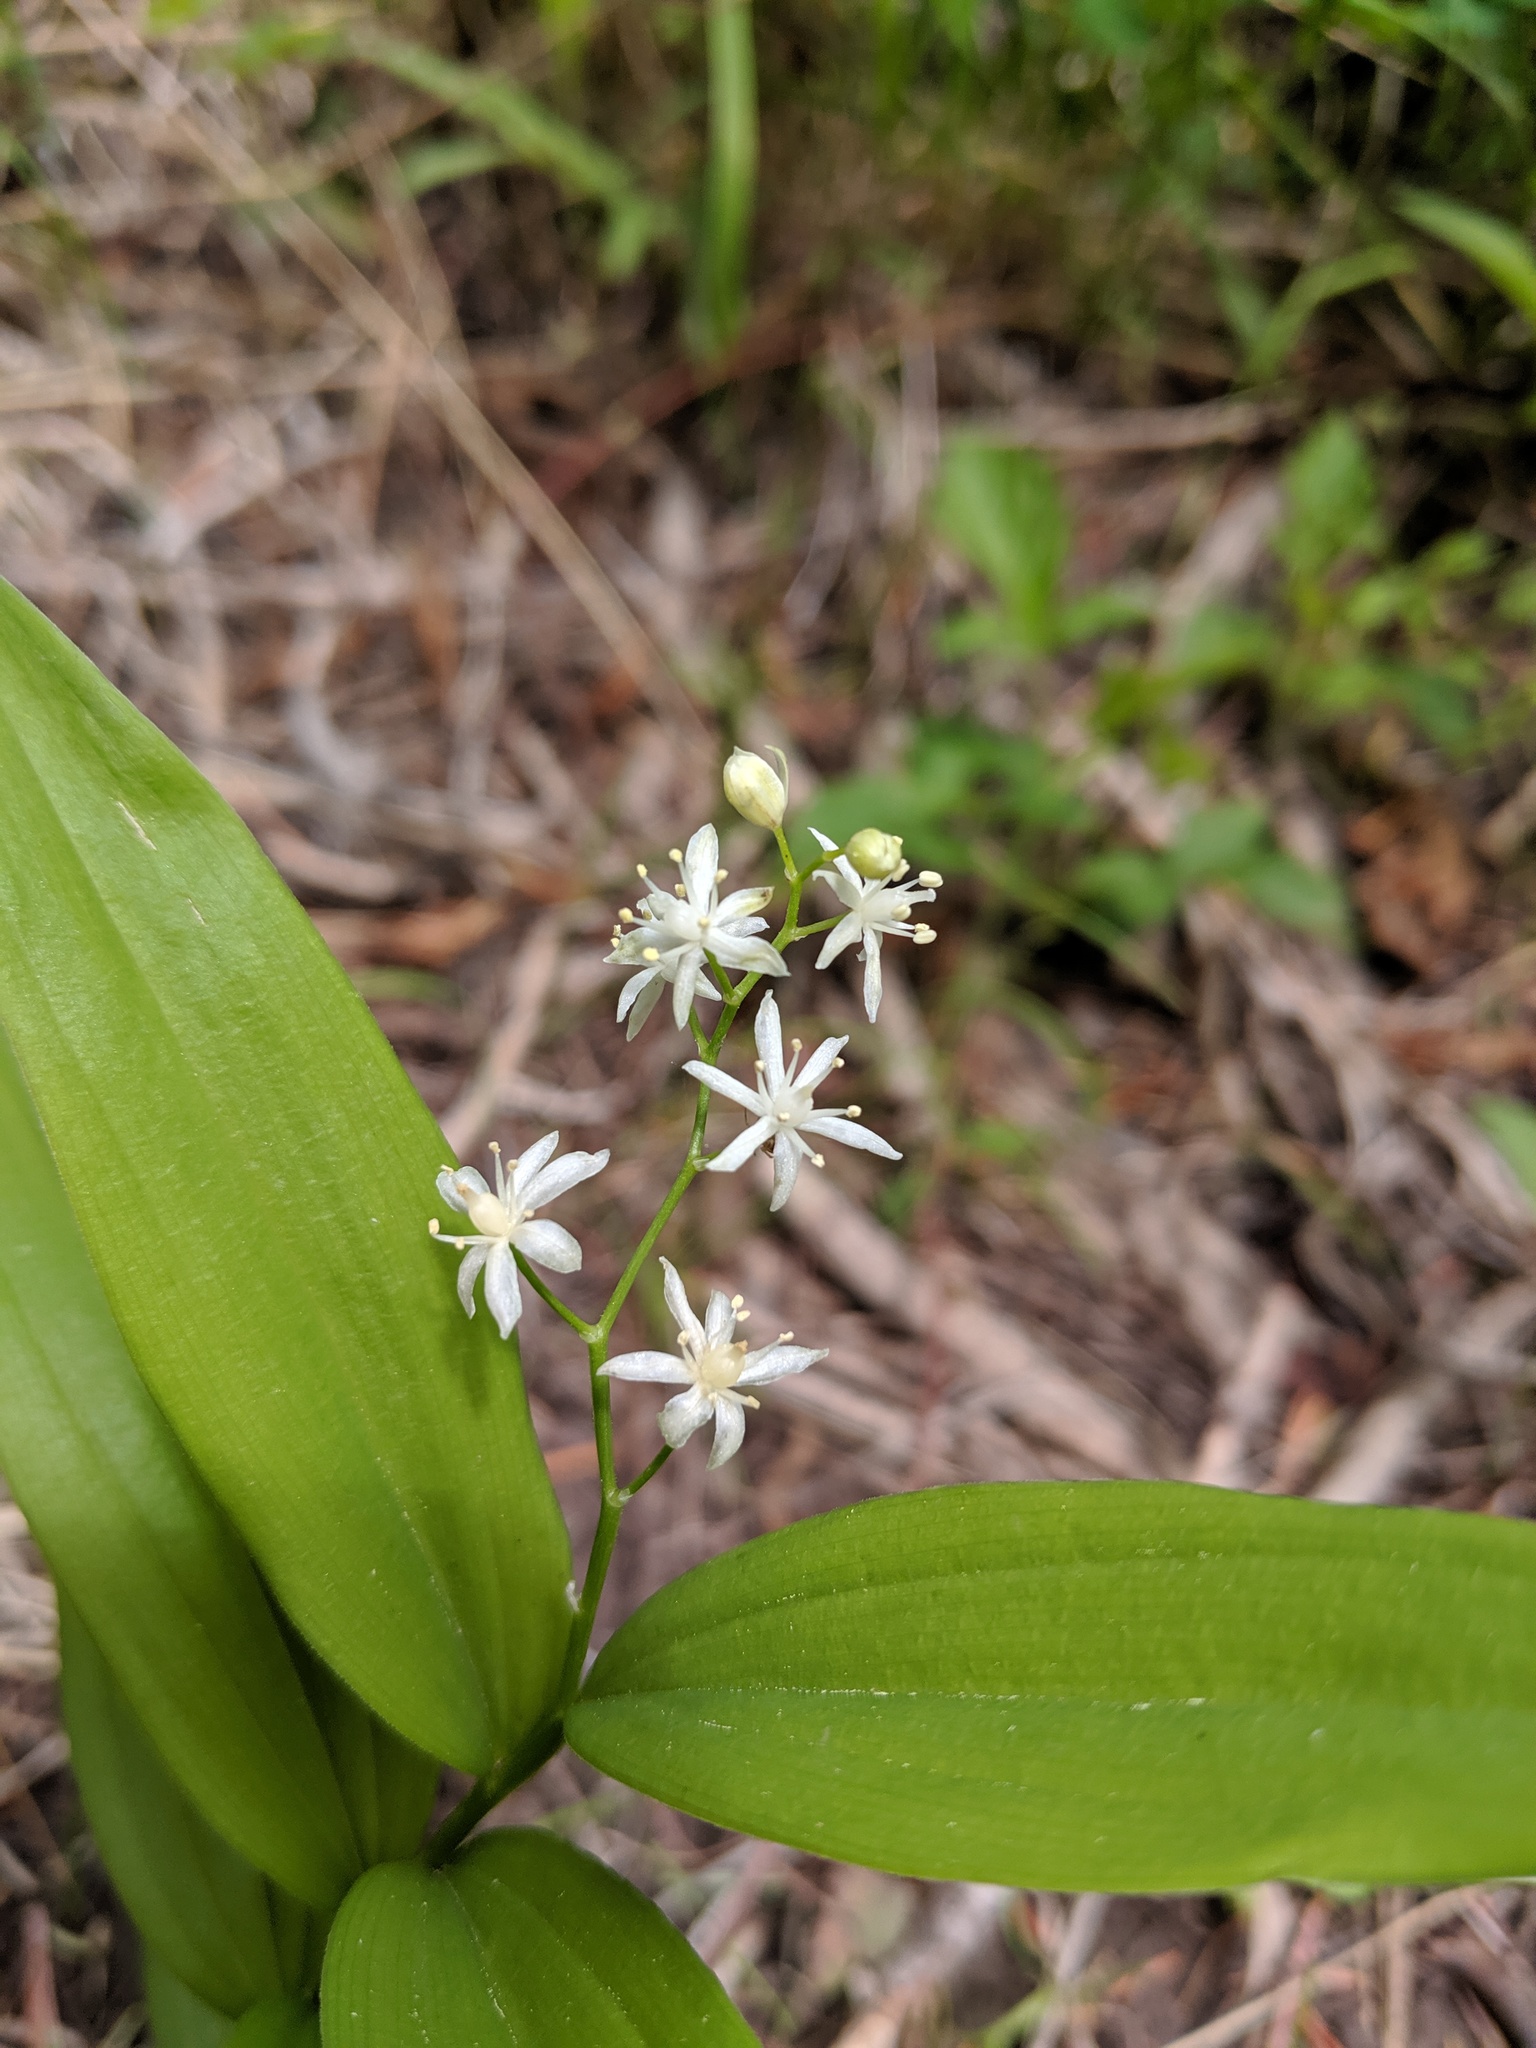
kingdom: Plantae
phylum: Tracheophyta
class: Liliopsida
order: Asparagales
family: Asparagaceae
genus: Maianthemum
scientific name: Maianthemum stellatum
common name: Little false solomon's seal
